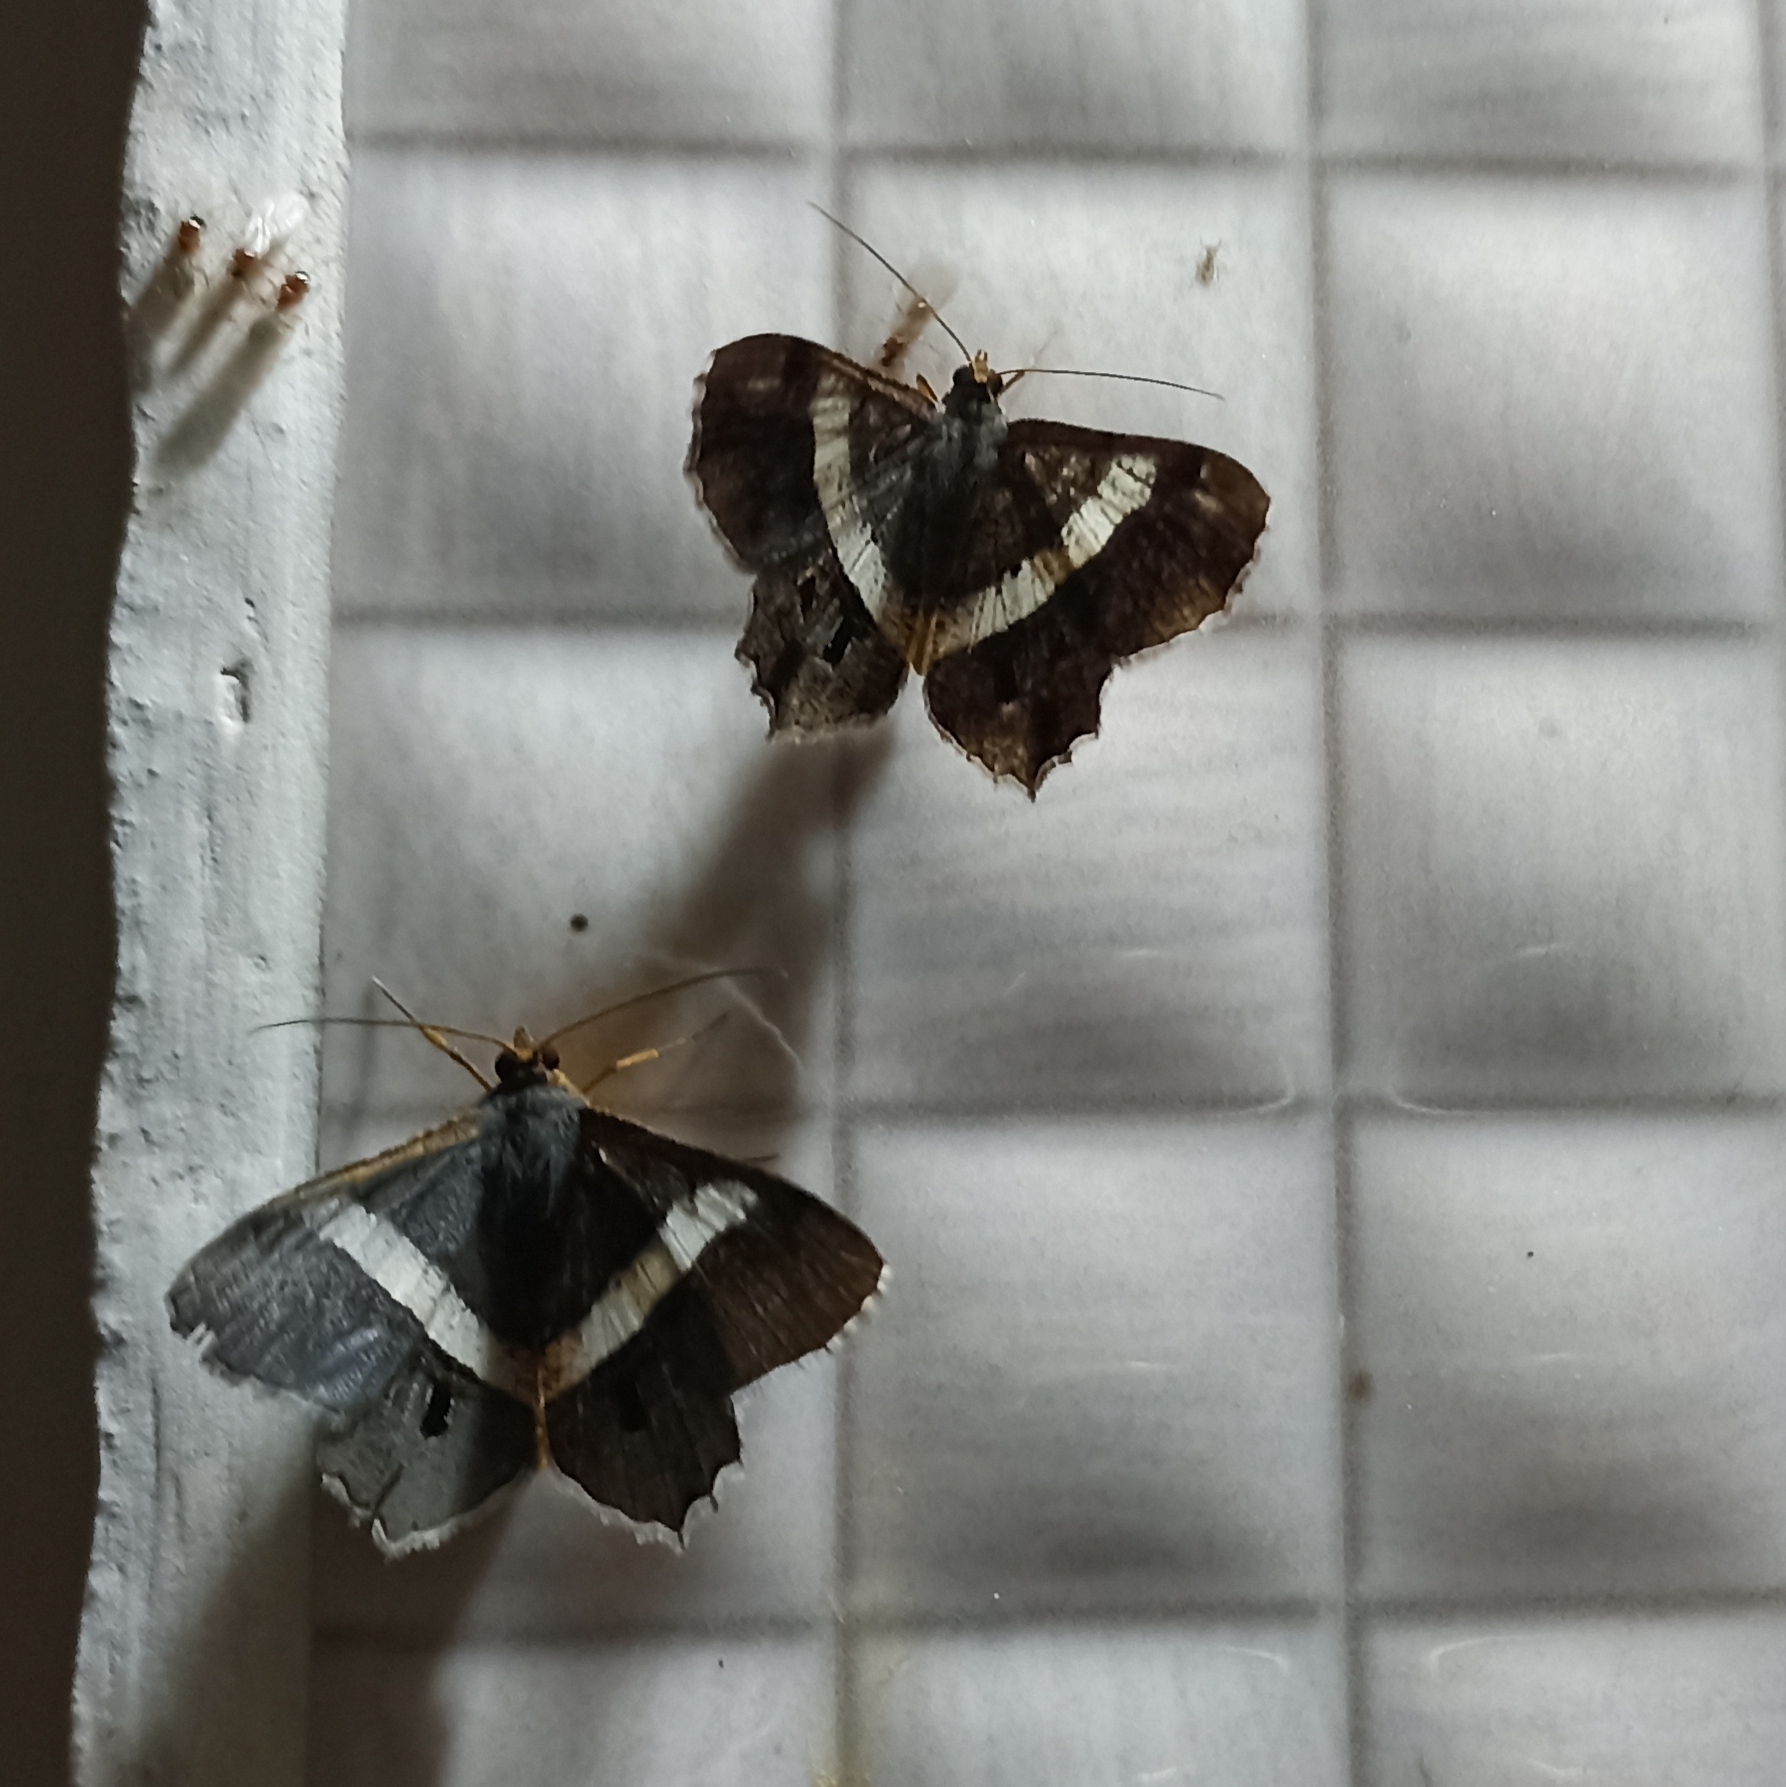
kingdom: Animalia
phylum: Arthropoda
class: Insecta
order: Lepidoptera
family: Geometridae
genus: Chiasmia
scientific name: Chiasmia eleonora
